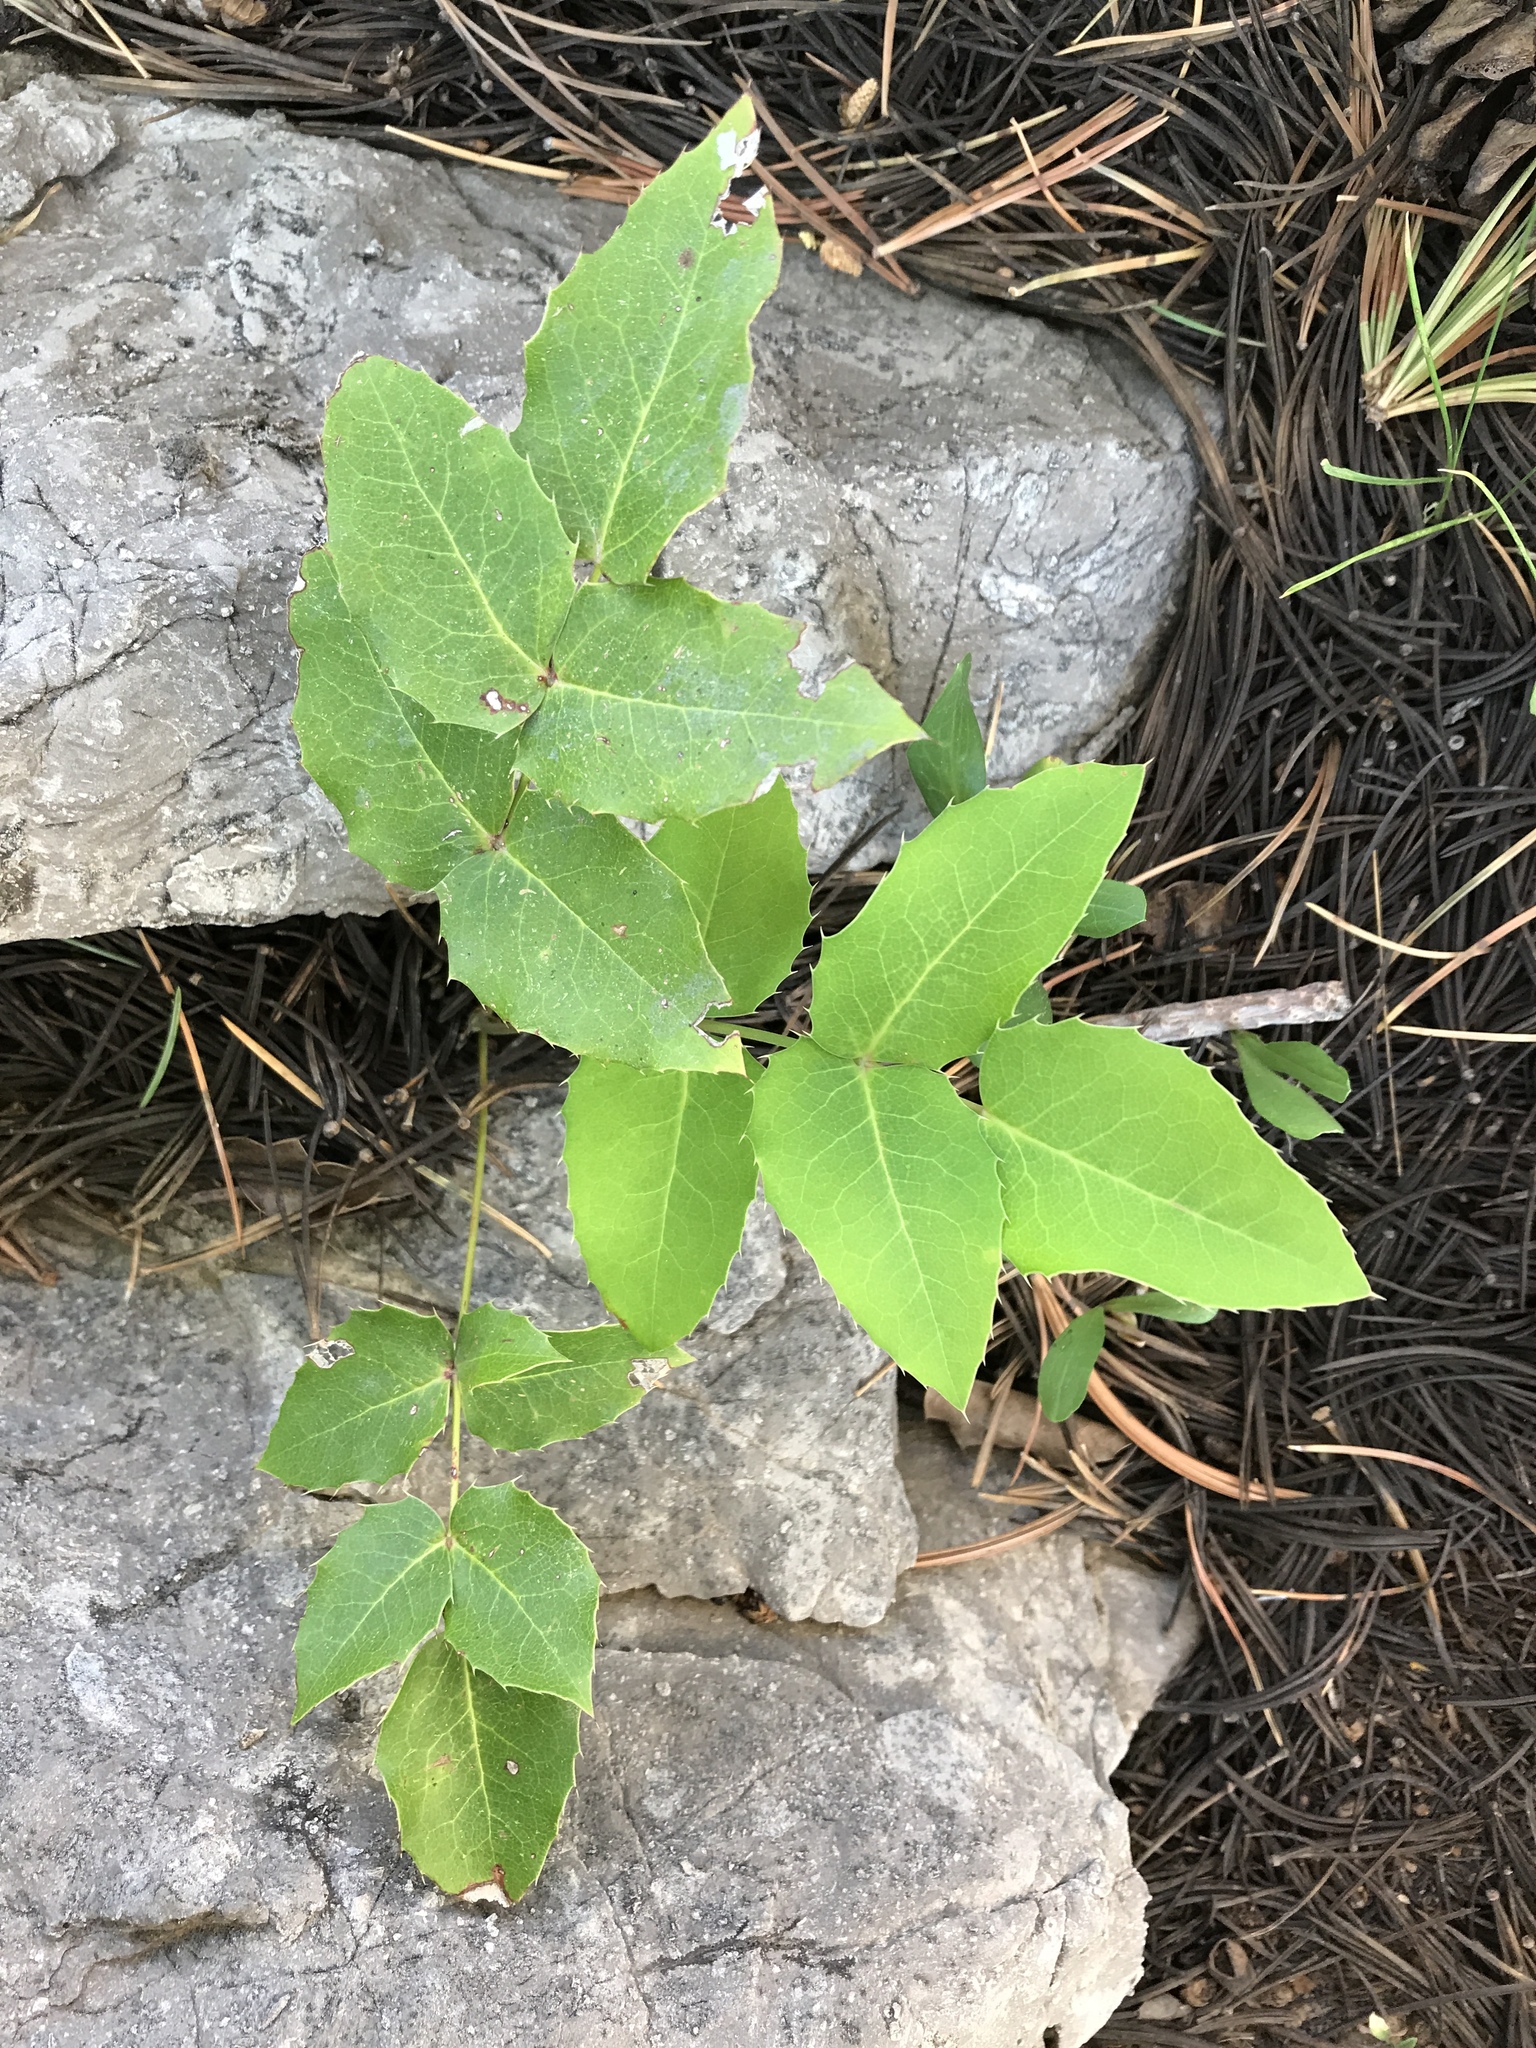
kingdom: Plantae
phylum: Tracheophyta
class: Magnoliopsida
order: Ranunculales
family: Berberidaceae
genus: Mahonia
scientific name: Mahonia repens
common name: Creeping oregon-grape
